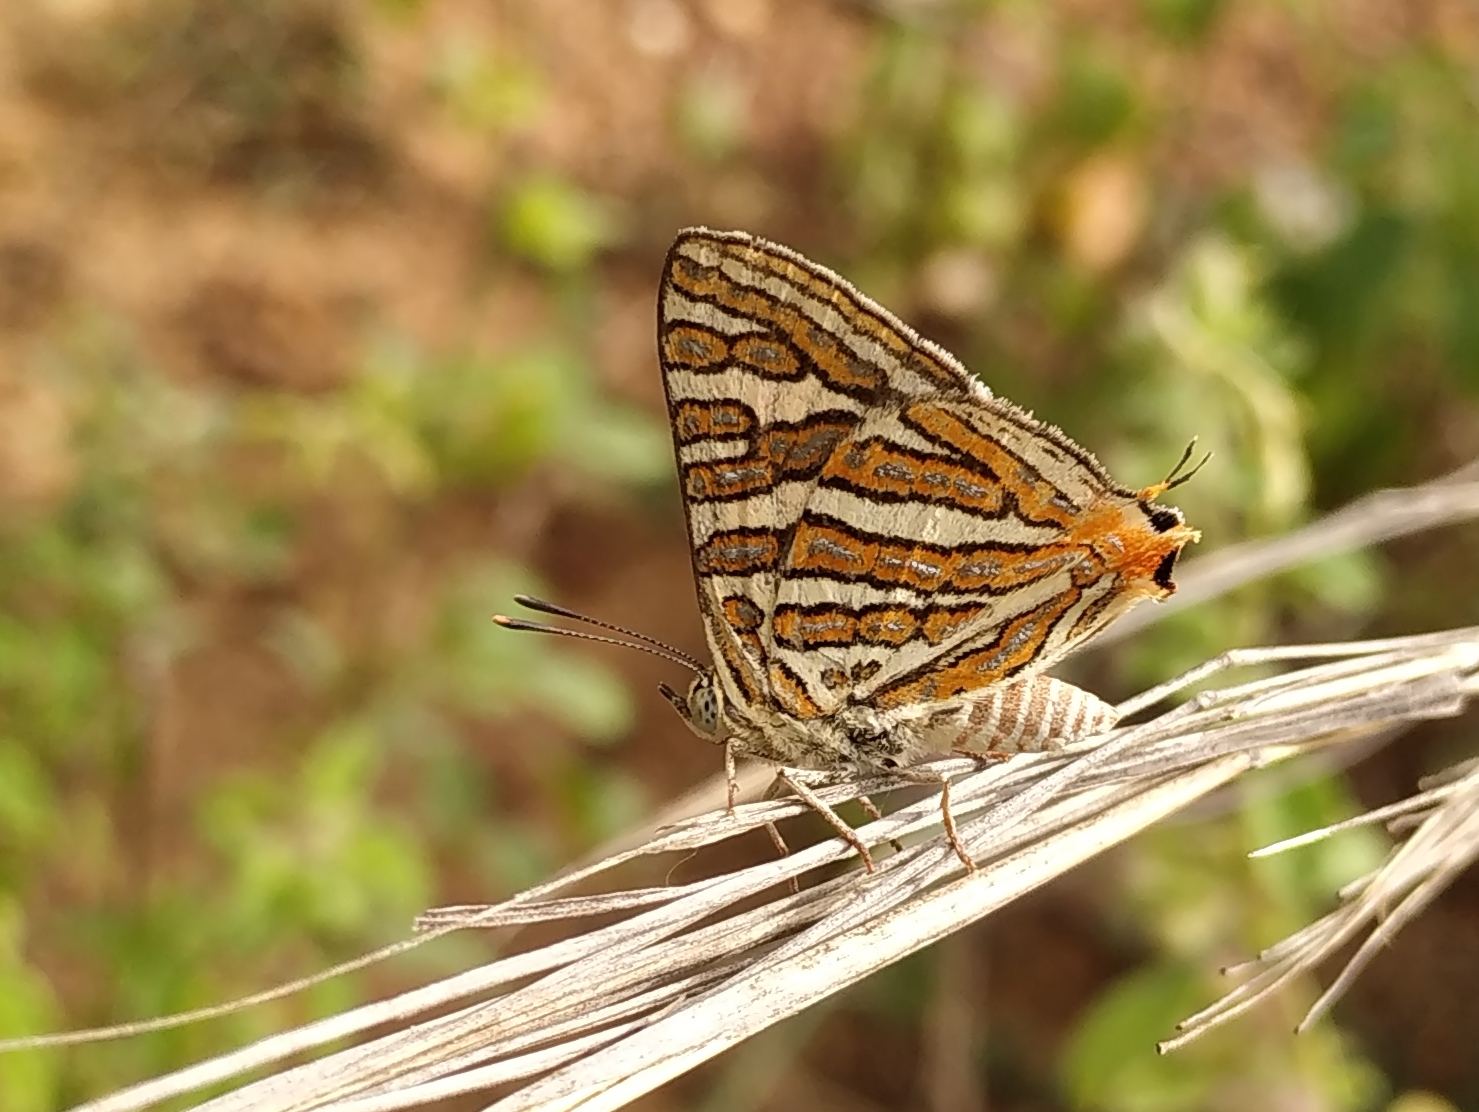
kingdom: Animalia
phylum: Arthropoda
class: Insecta
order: Lepidoptera
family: Lycaenidae
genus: Cigaritis
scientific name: Cigaritis vulcanus
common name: Common silverline
